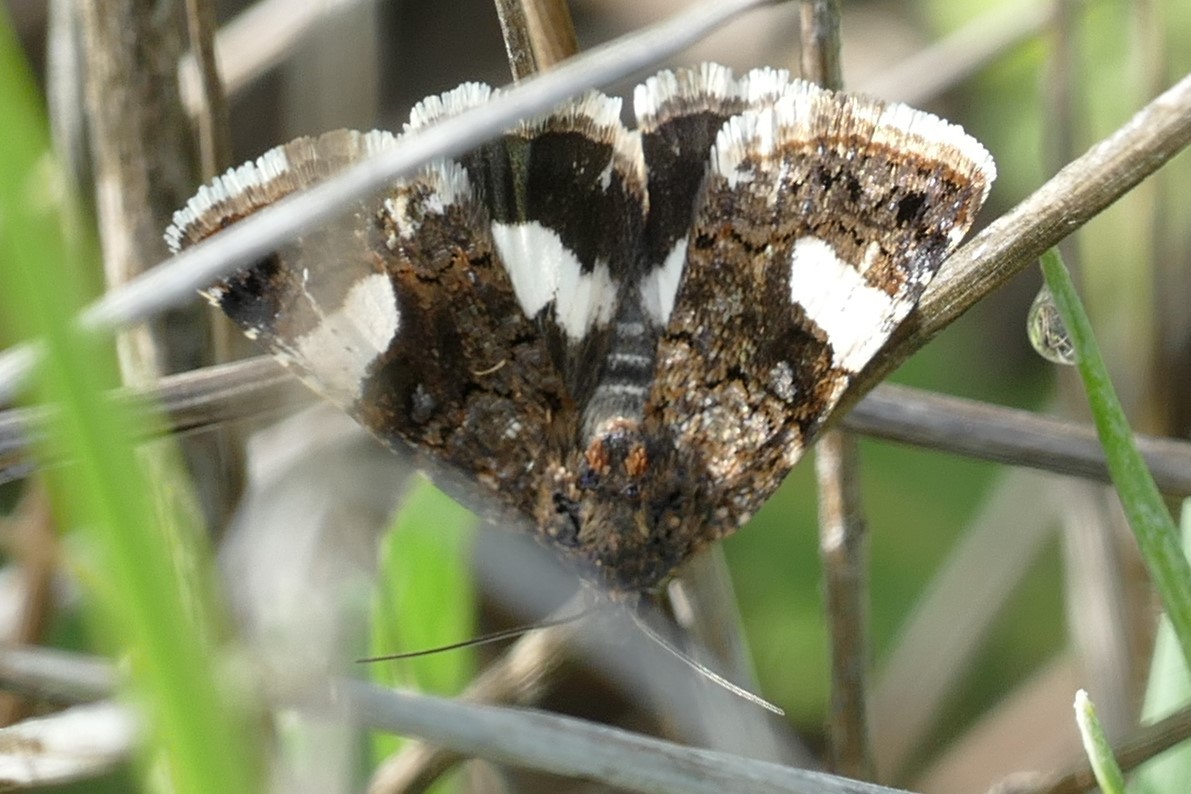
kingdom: Animalia
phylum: Arthropoda
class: Insecta
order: Lepidoptera
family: Erebidae
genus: Tyta
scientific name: Tyta luctuosa
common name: Four-spotted
